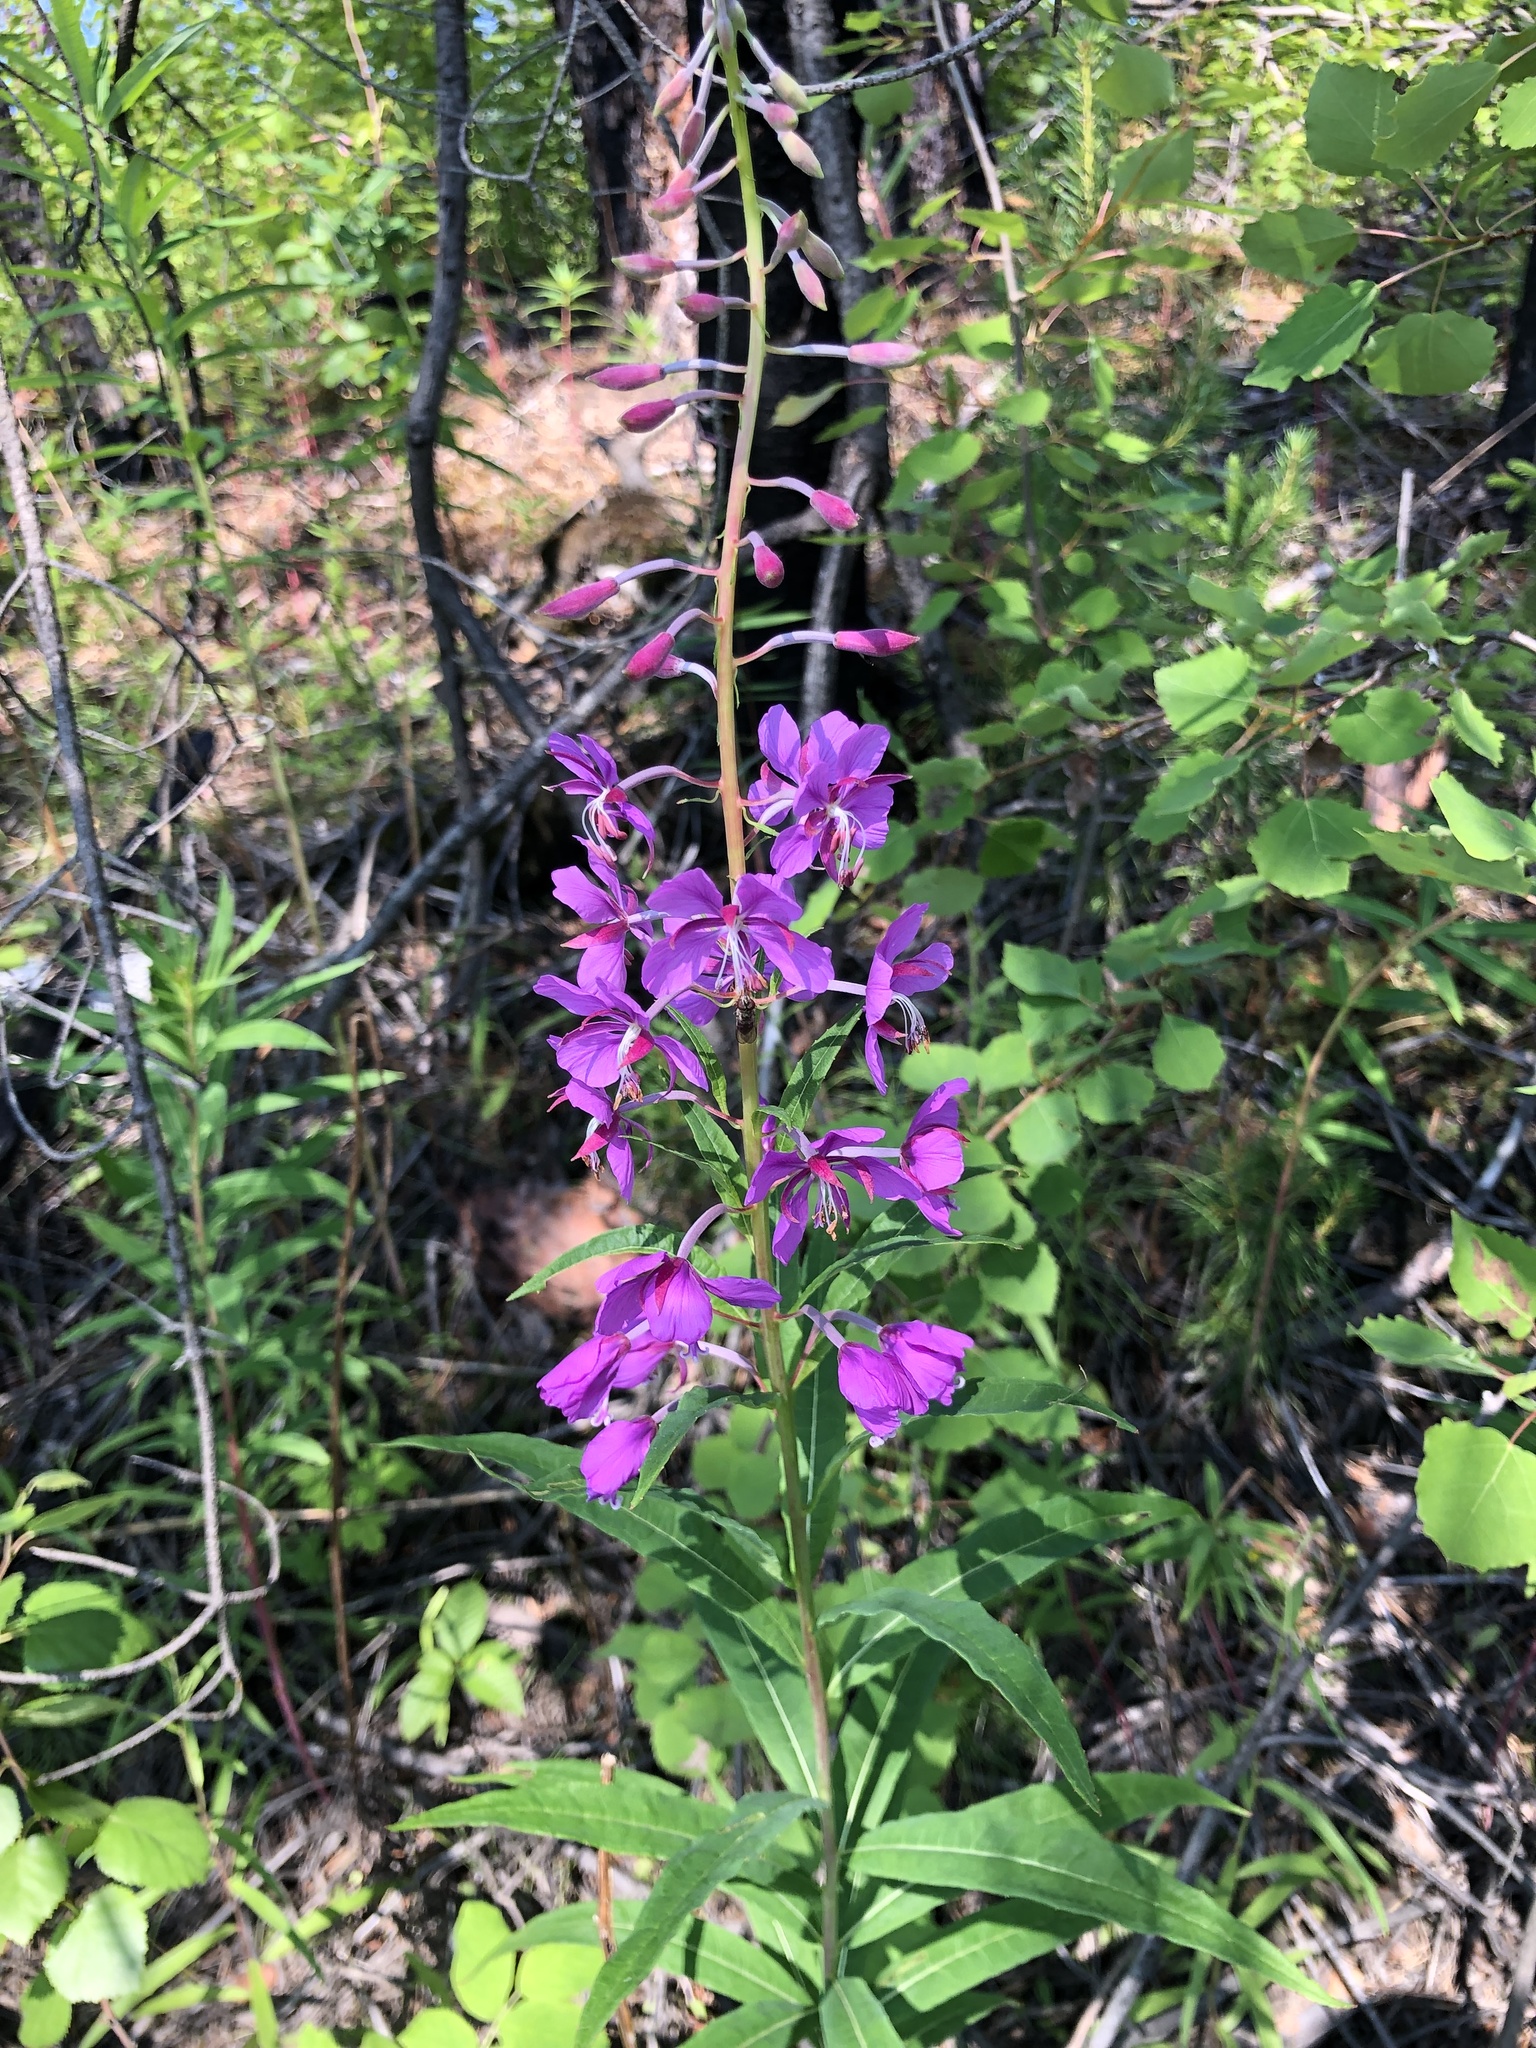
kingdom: Plantae
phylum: Tracheophyta
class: Magnoliopsida
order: Myrtales
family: Onagraceae
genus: Chamaenerion
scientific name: Chamaenerion angustifolium
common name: Fireweed
